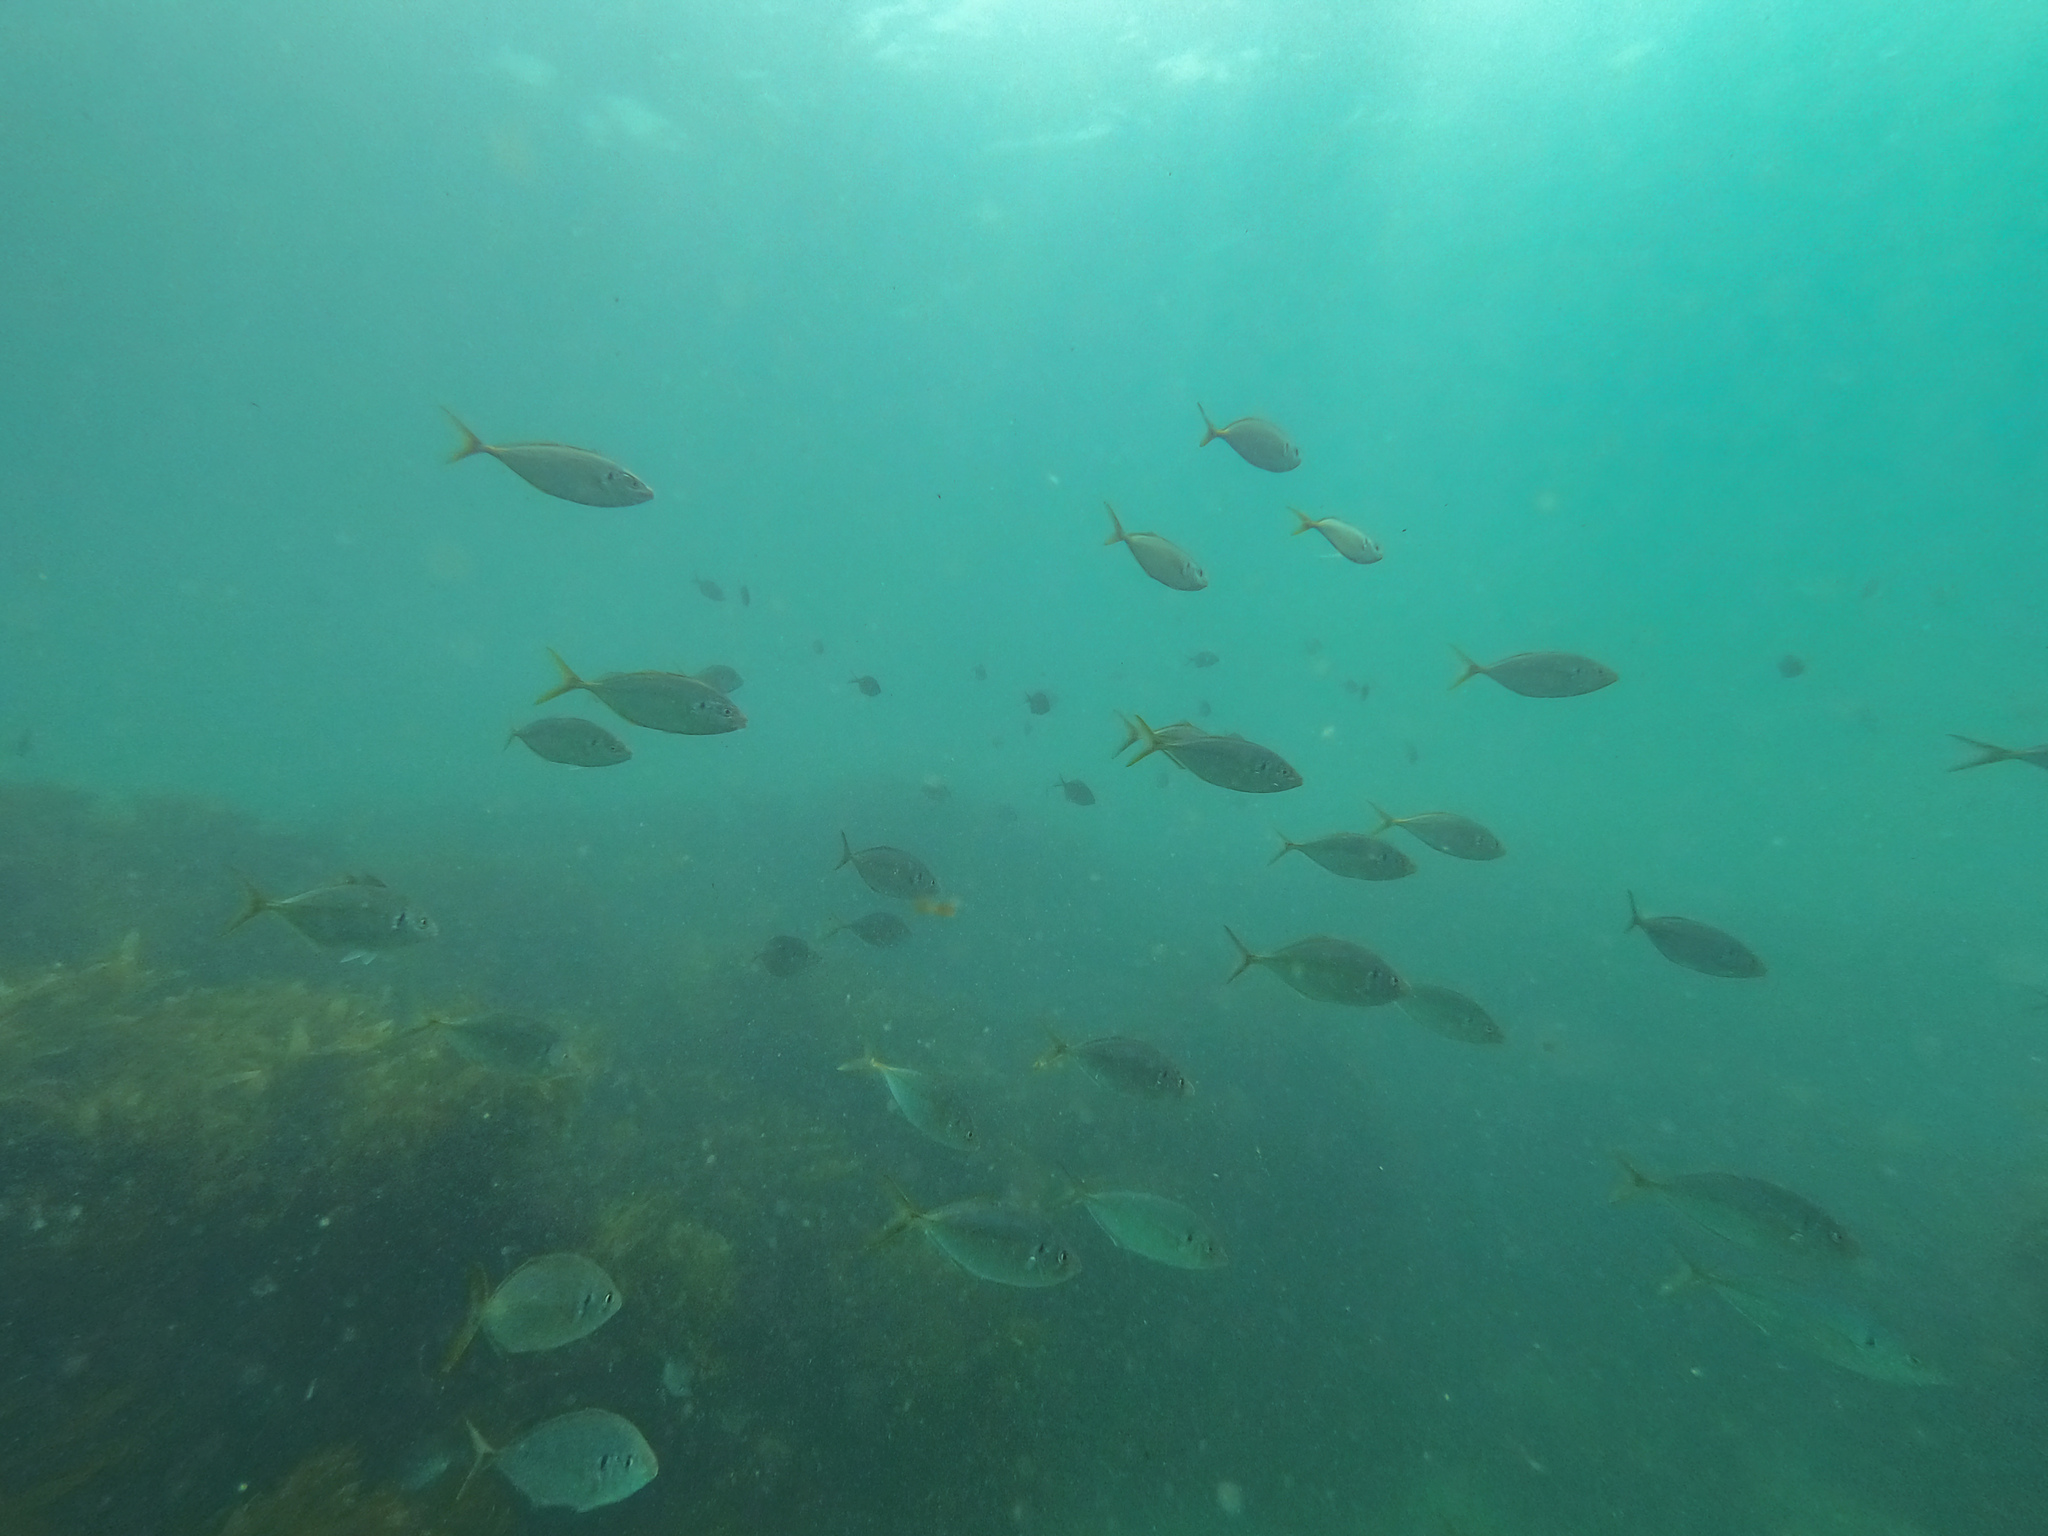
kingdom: Animalia
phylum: Chordata
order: Perciformes
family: Carangidae
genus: Pseudocaranx
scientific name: Pseudocaranx dentex
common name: White trevally
